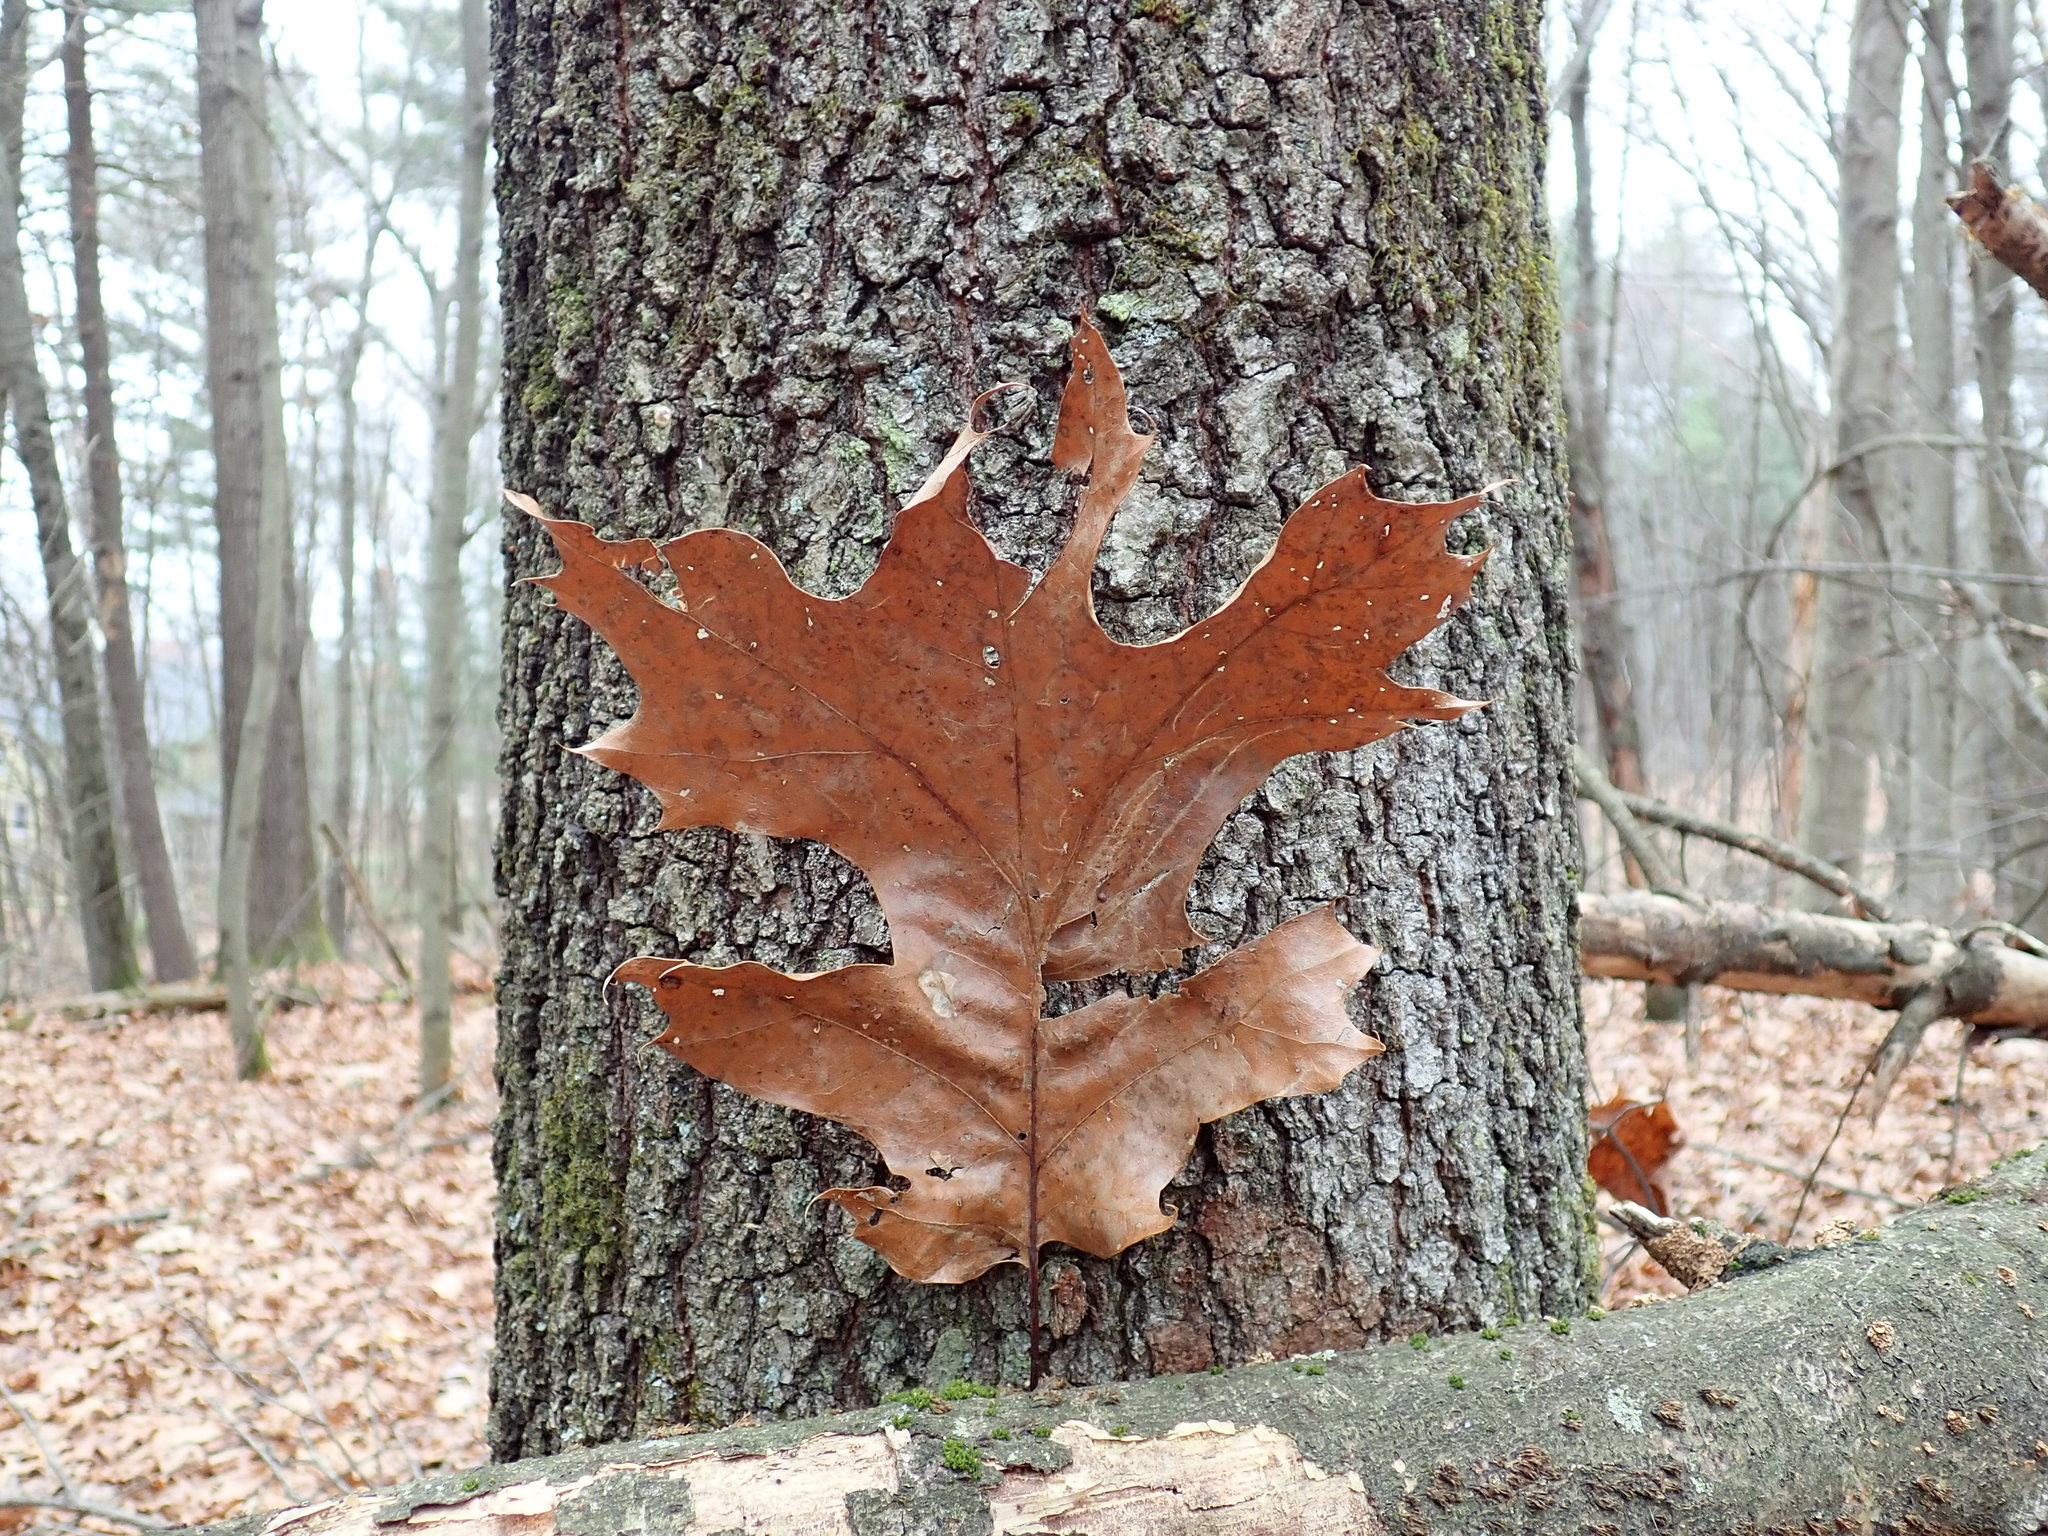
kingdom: Plantae
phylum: Tracheophyta
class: Magnoliopsida
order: Fagales
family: Fagaceae
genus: Quercus
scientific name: Quercus velutina
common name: Black oak
